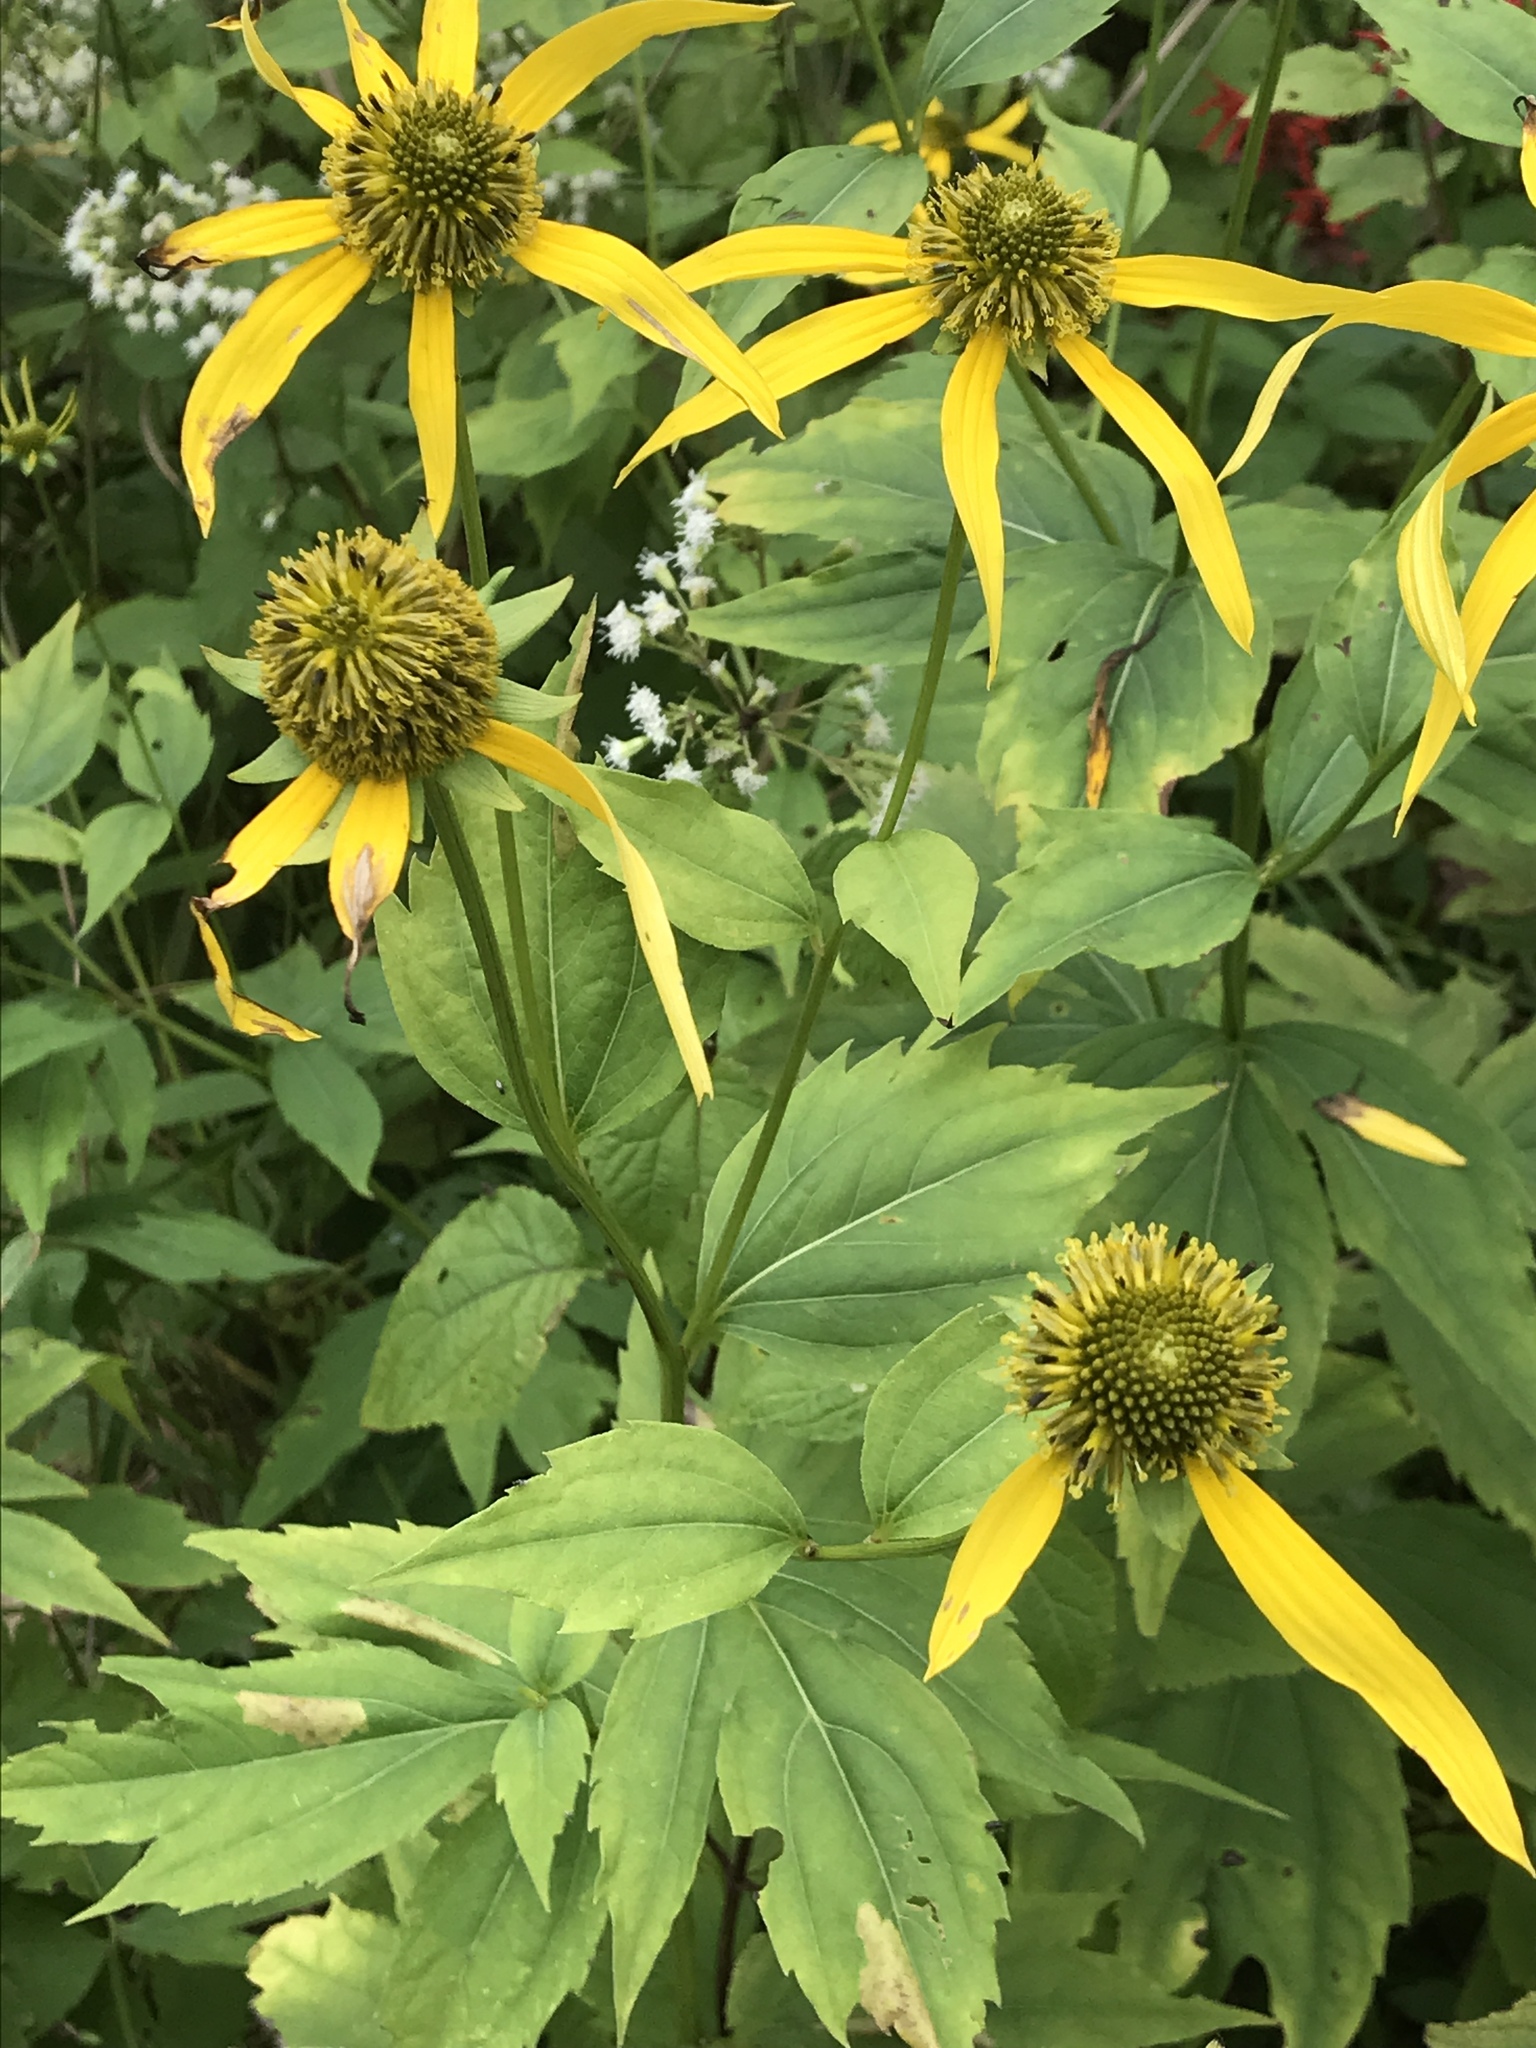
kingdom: Plantae
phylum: Tracheophyta
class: Magnoliopsida
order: Asterales
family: Asteraceae
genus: Rudbeckia
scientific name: Rudbeckia laciniata
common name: Coneflower
